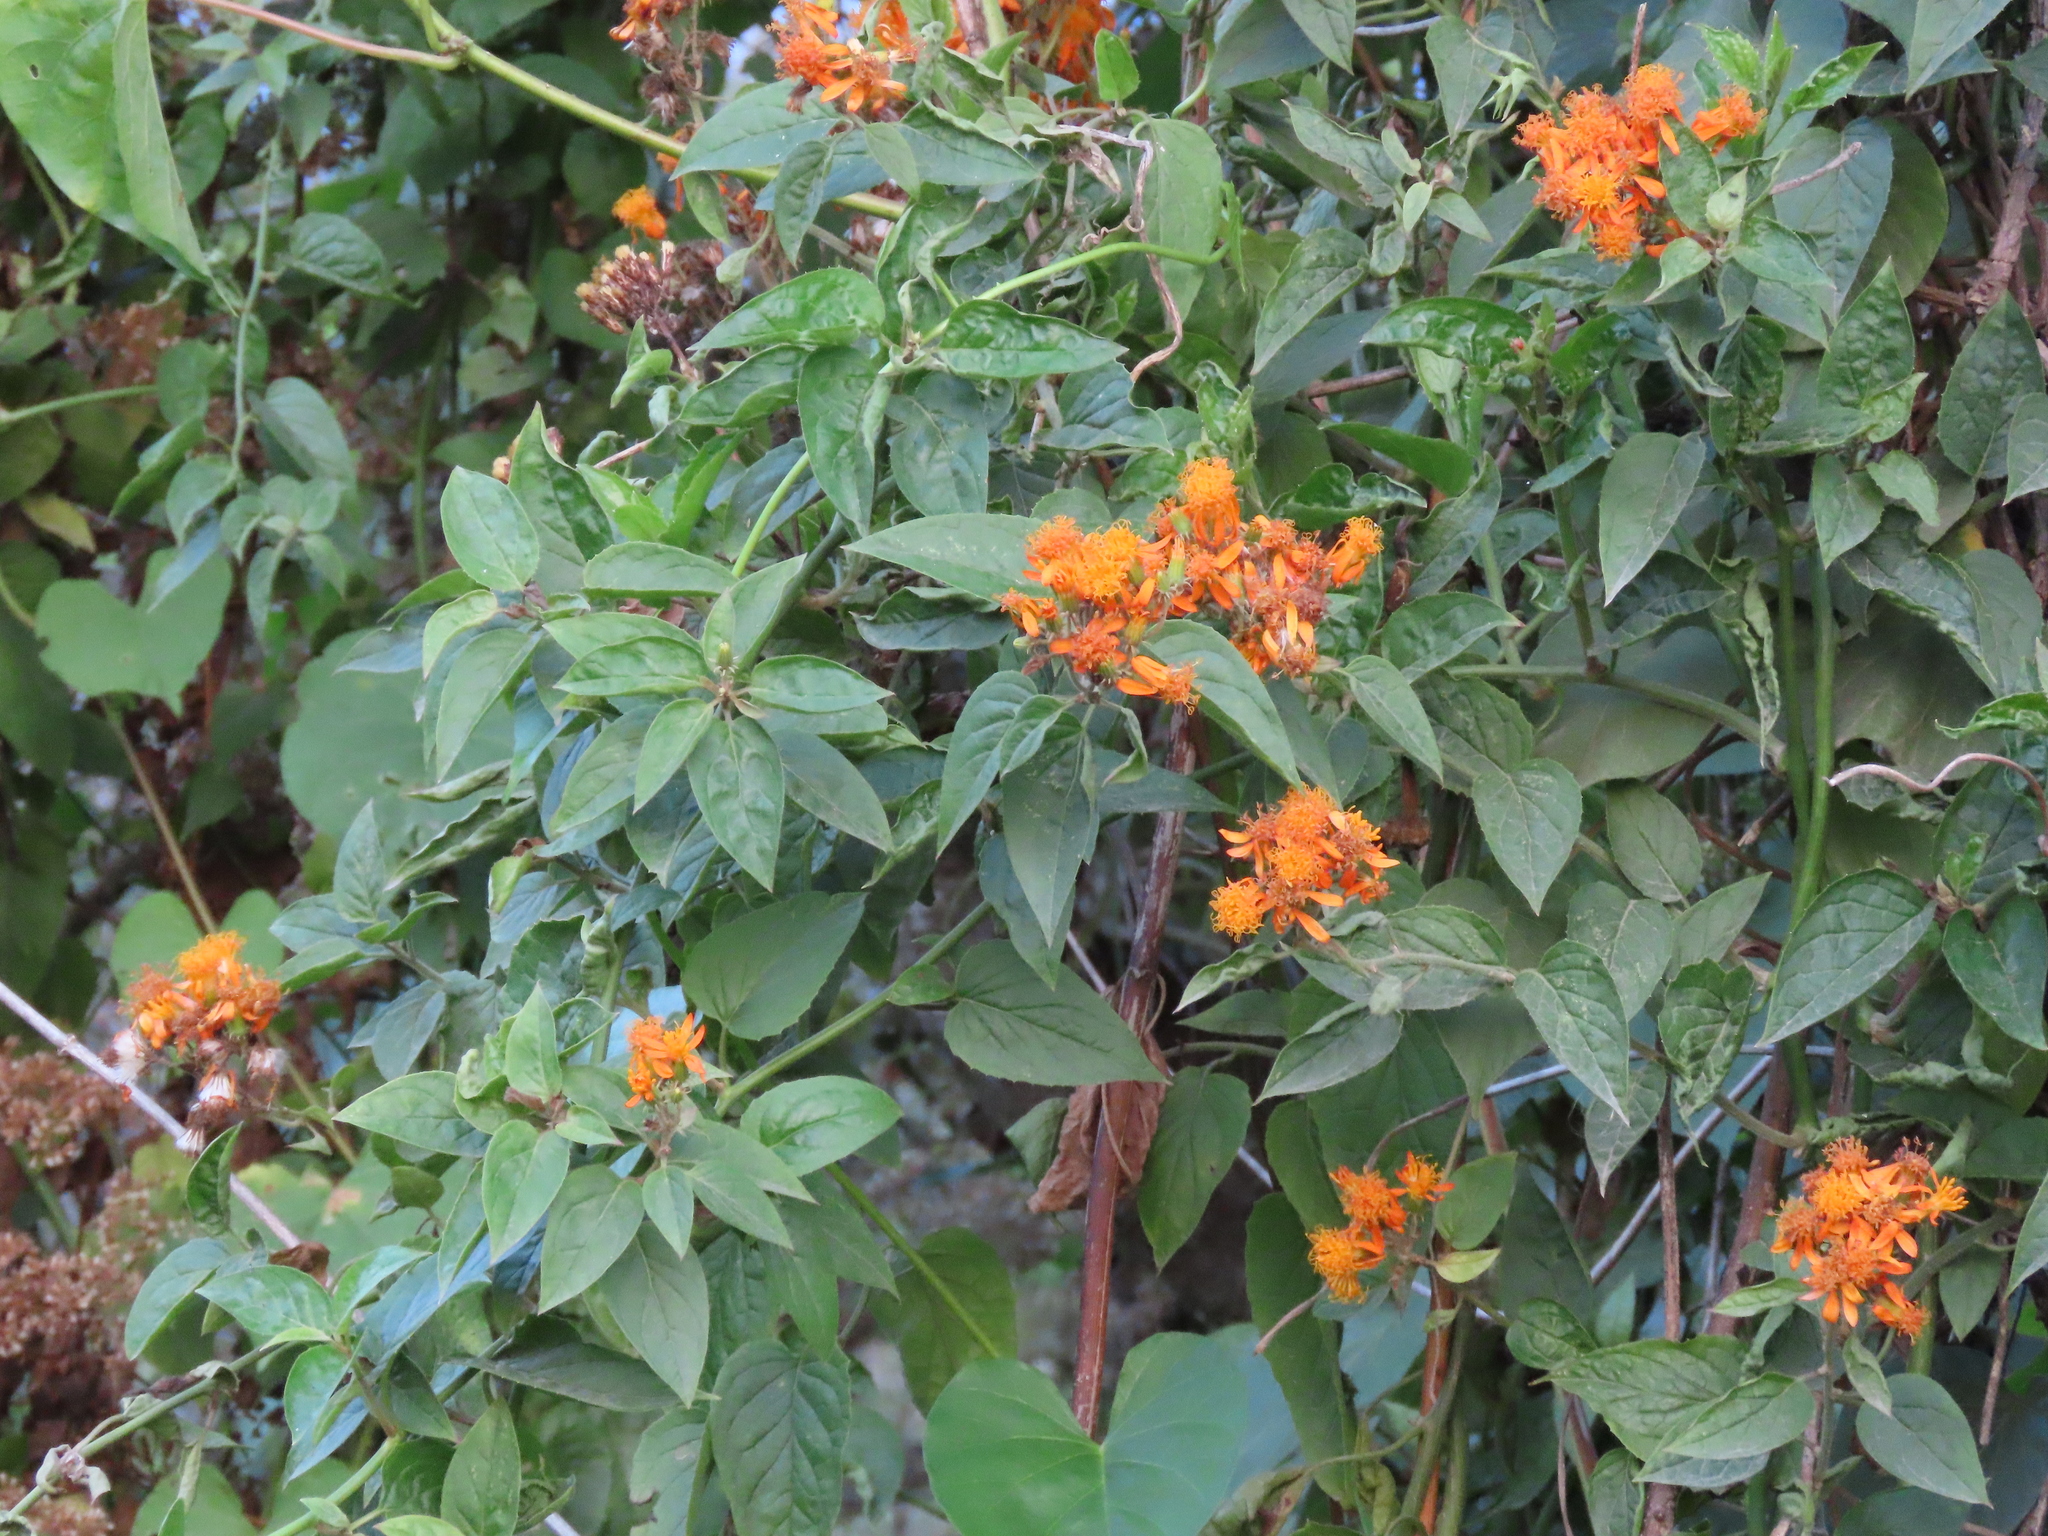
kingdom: Plantae
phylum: Tracheophyta
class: Magnoliopsida
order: Asterales
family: Asteraceae
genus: Pseudogynoxys
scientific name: Pseudogynoxys chenopodioides
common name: Mexican flamevine
